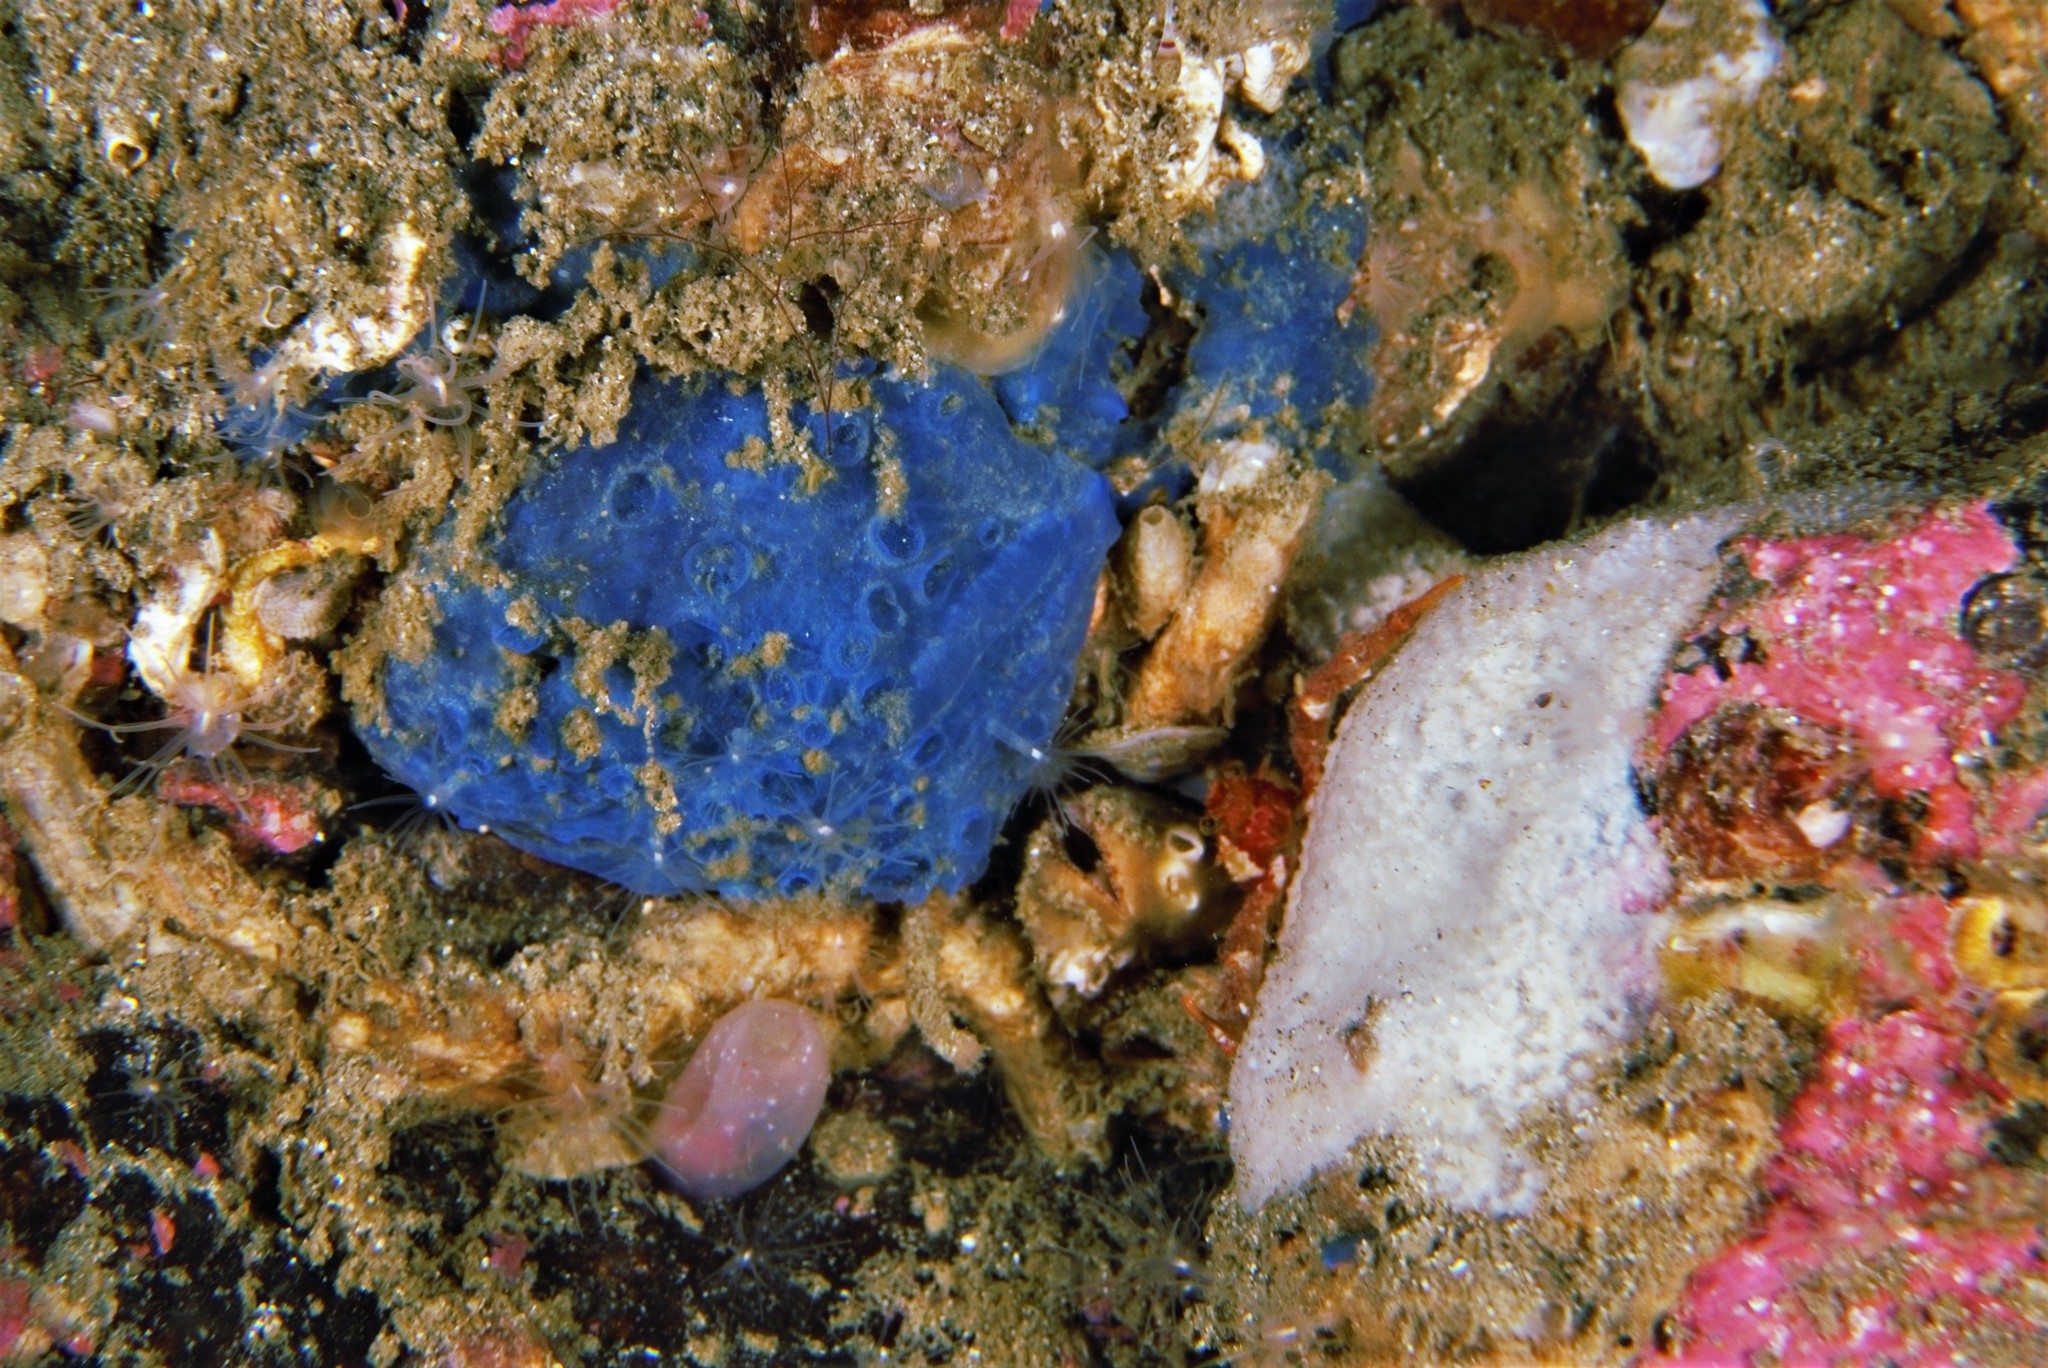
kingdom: Animalia
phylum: Porifera
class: Demospongiae
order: Poecilosclerida
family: Hymedesmiidae
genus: Hymedesmia
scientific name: Hymedesmia paupertas
